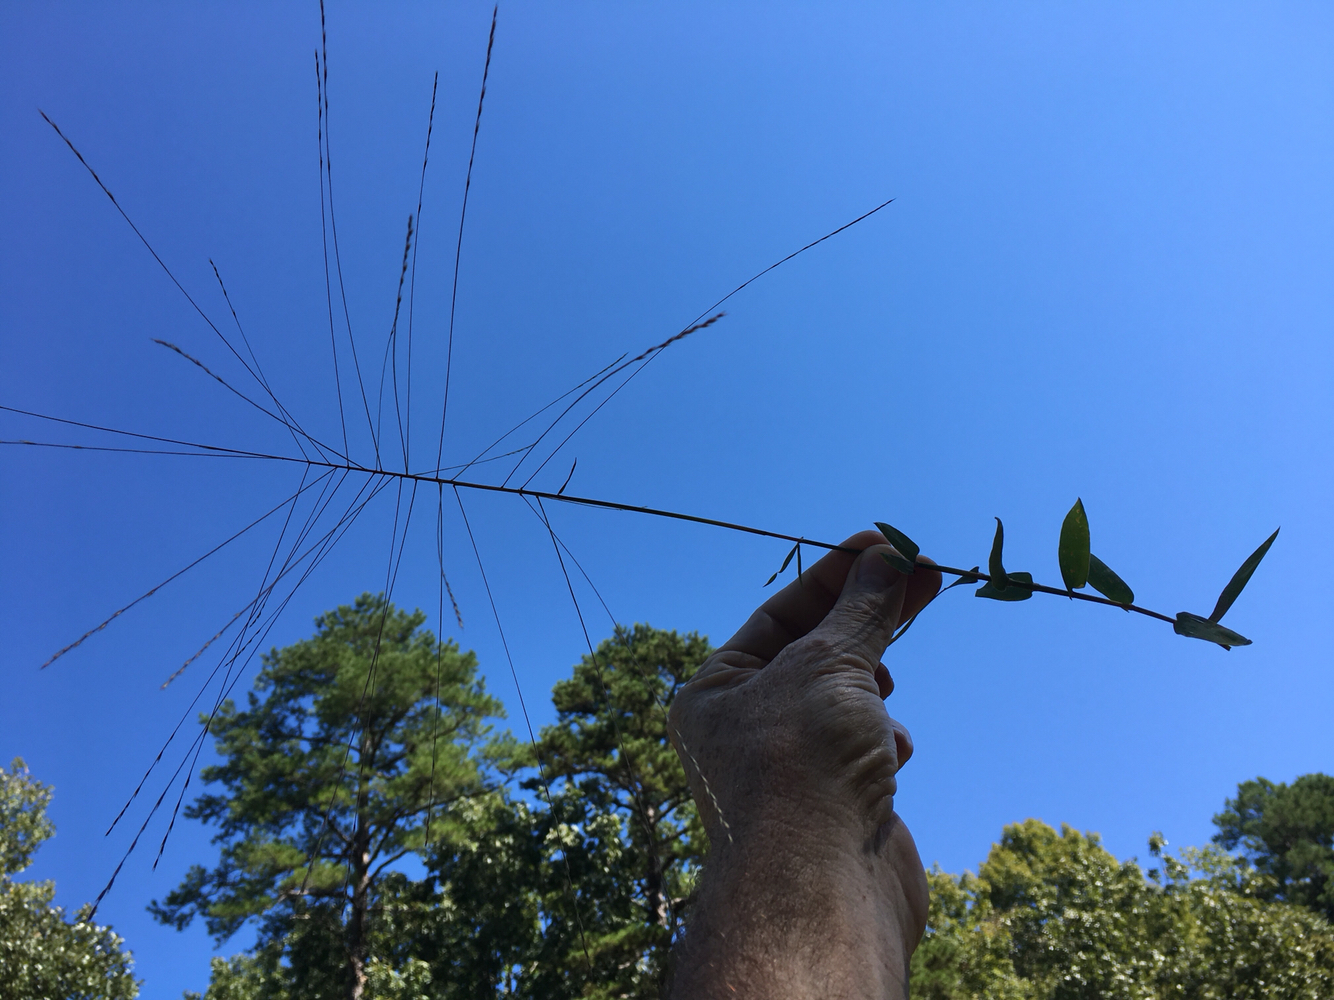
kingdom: Plantae
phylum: Tracheophyta
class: Liliopsida
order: Poales
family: Poaceae
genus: Gymnopogon
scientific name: Gymnopogon brevifolius
